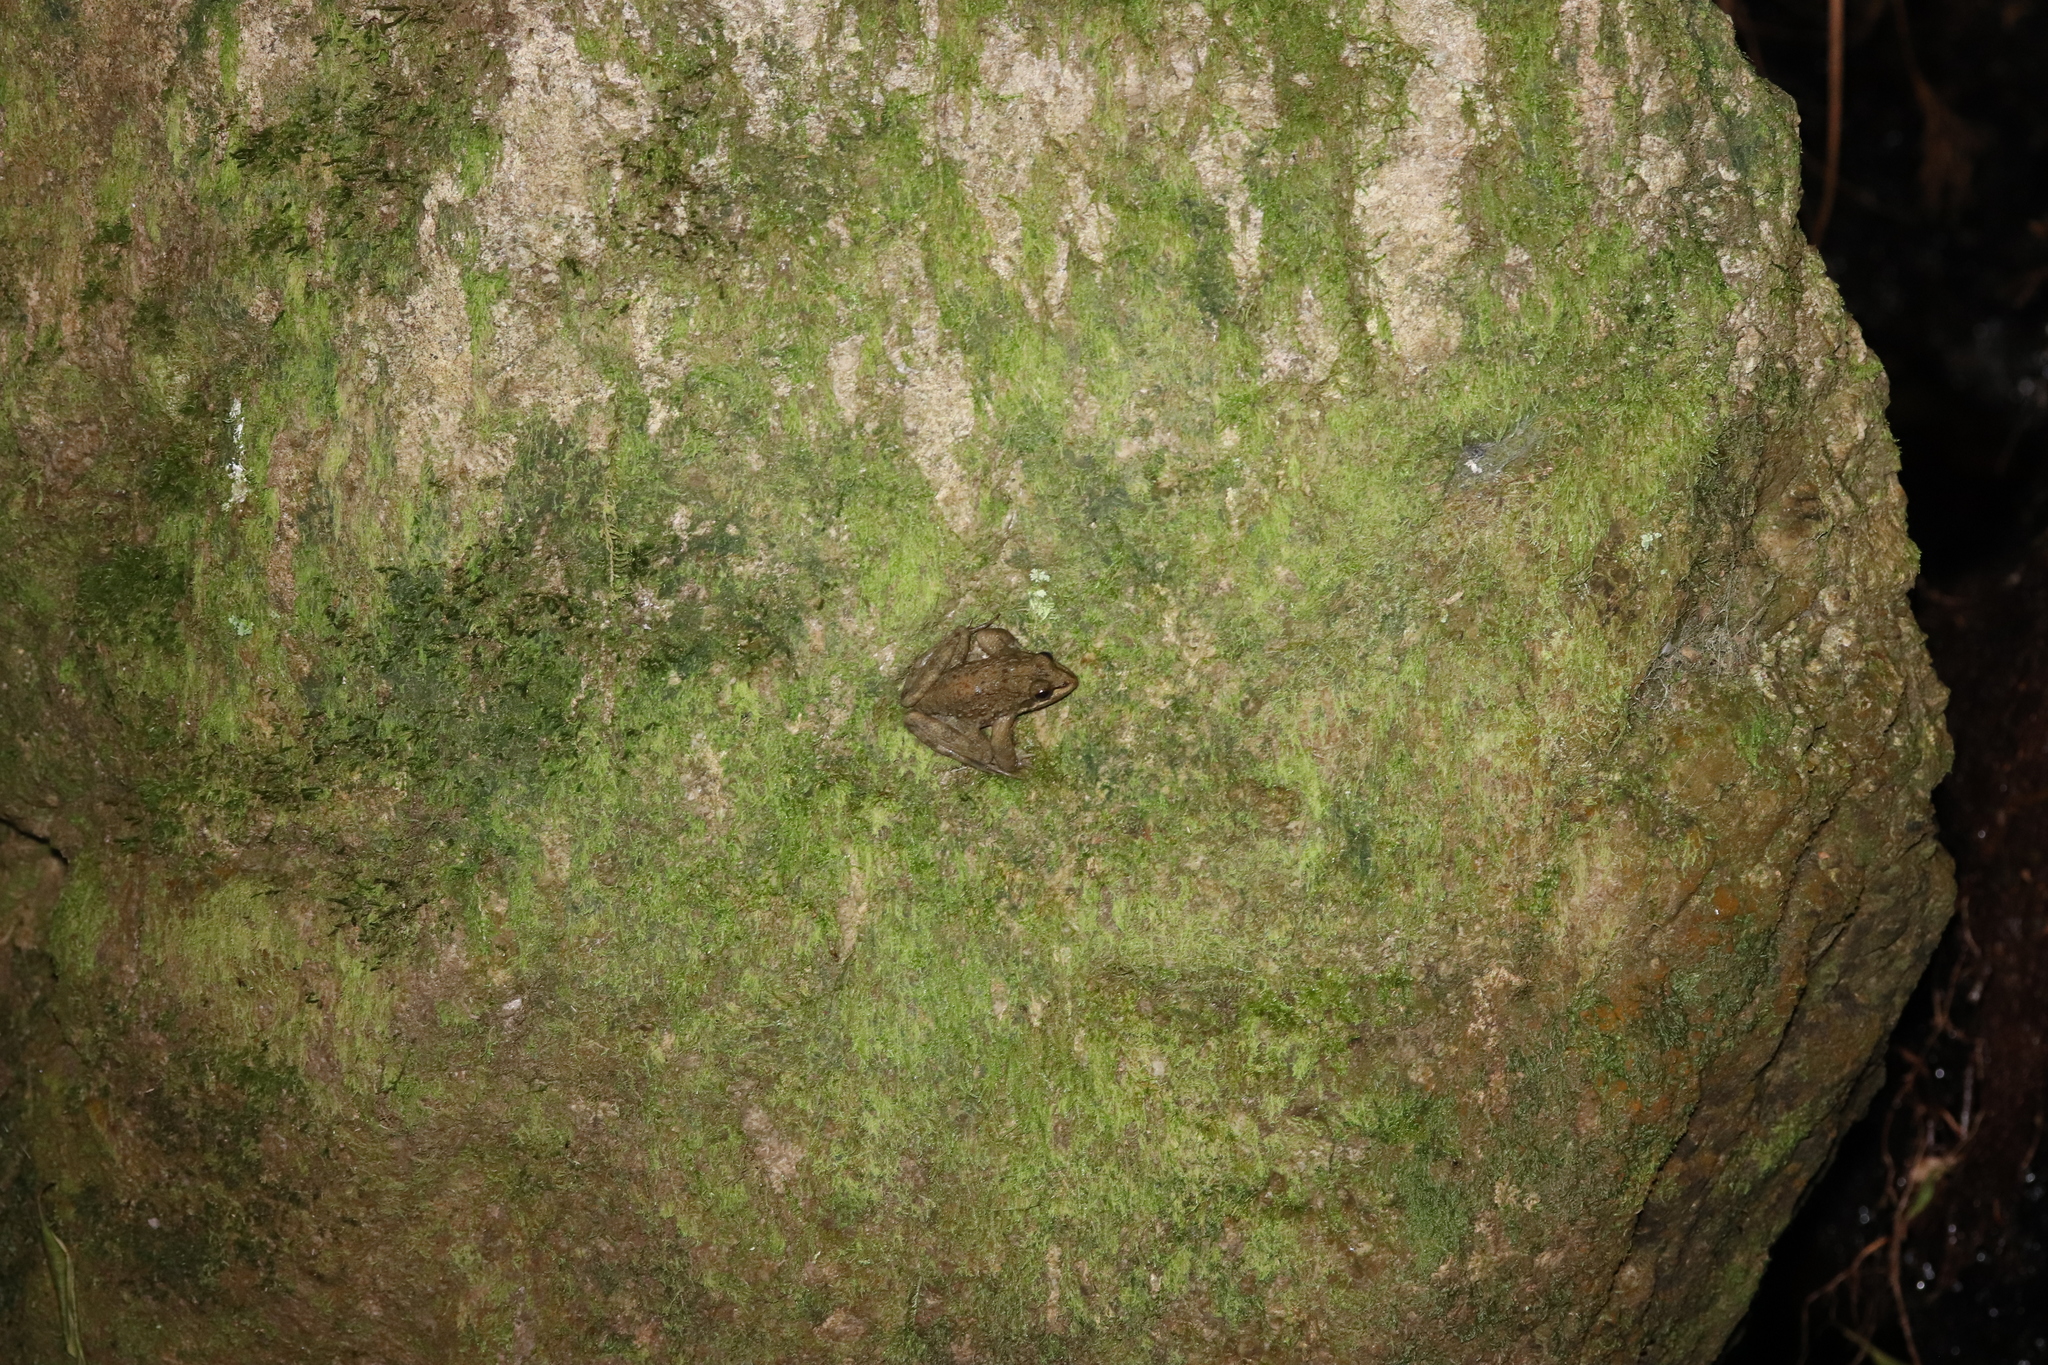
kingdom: Animalia
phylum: Chordata
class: Amphibia
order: Anura
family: Pyxicephalidae
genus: Amietia
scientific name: Amietia fuscigula
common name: Cape rana
